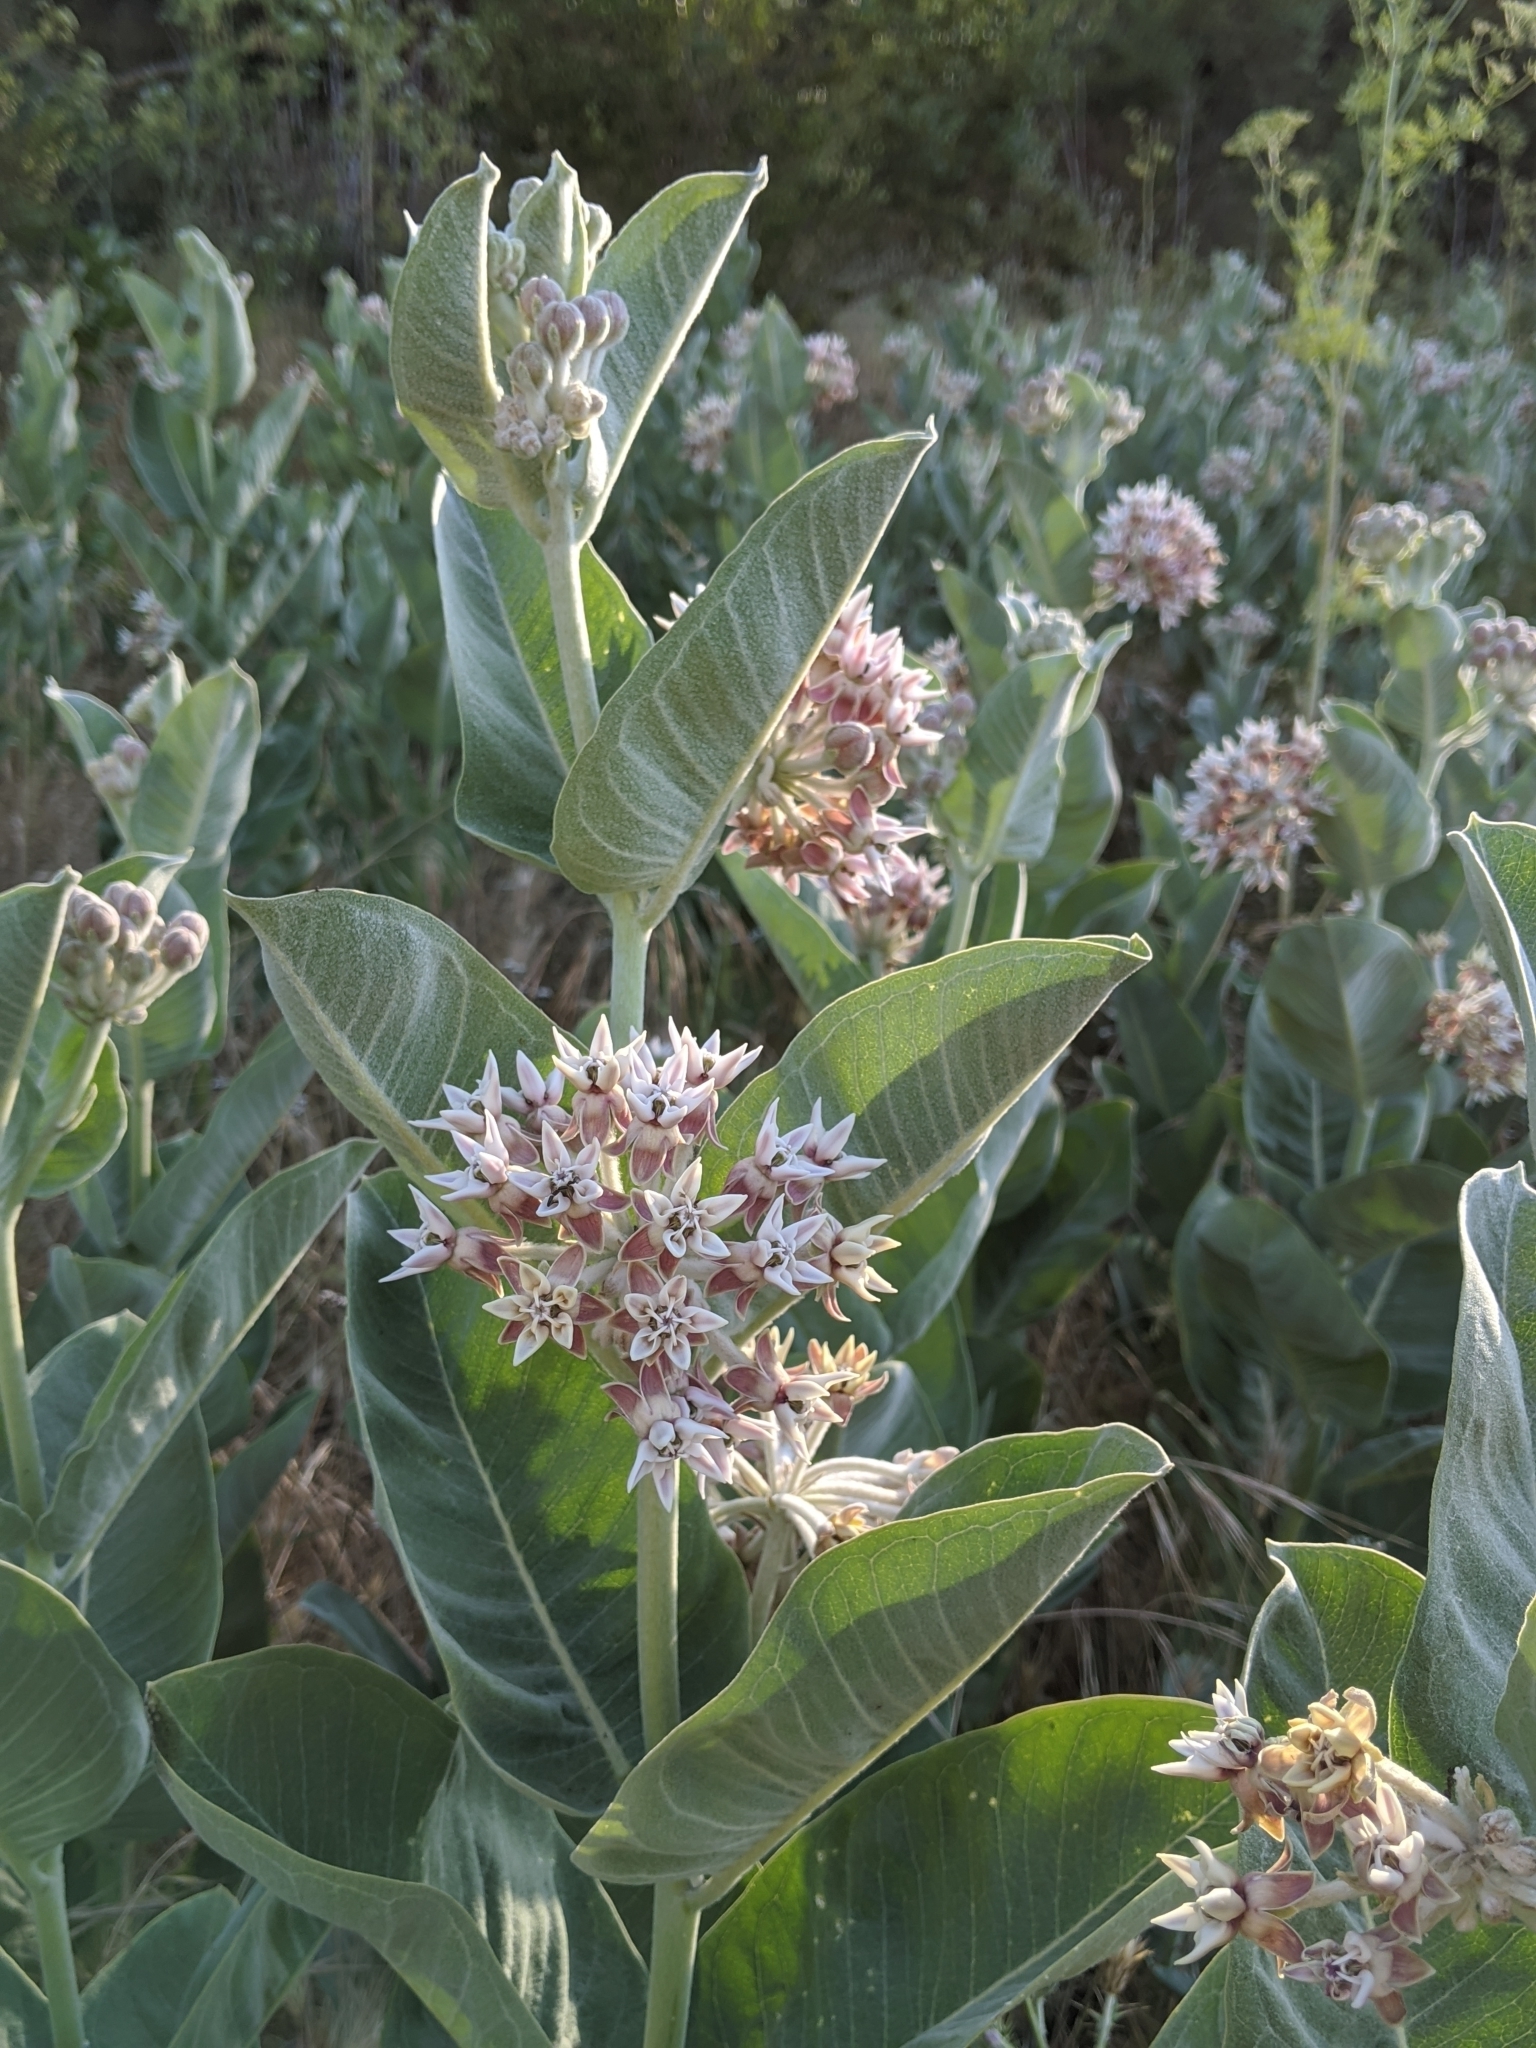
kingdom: Plantae
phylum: Tracheophyta
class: Magnoliopsida
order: Gentianales
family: Apocynaceae
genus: Asclepias
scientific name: Asclepias speciosa
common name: Showy milkweed
